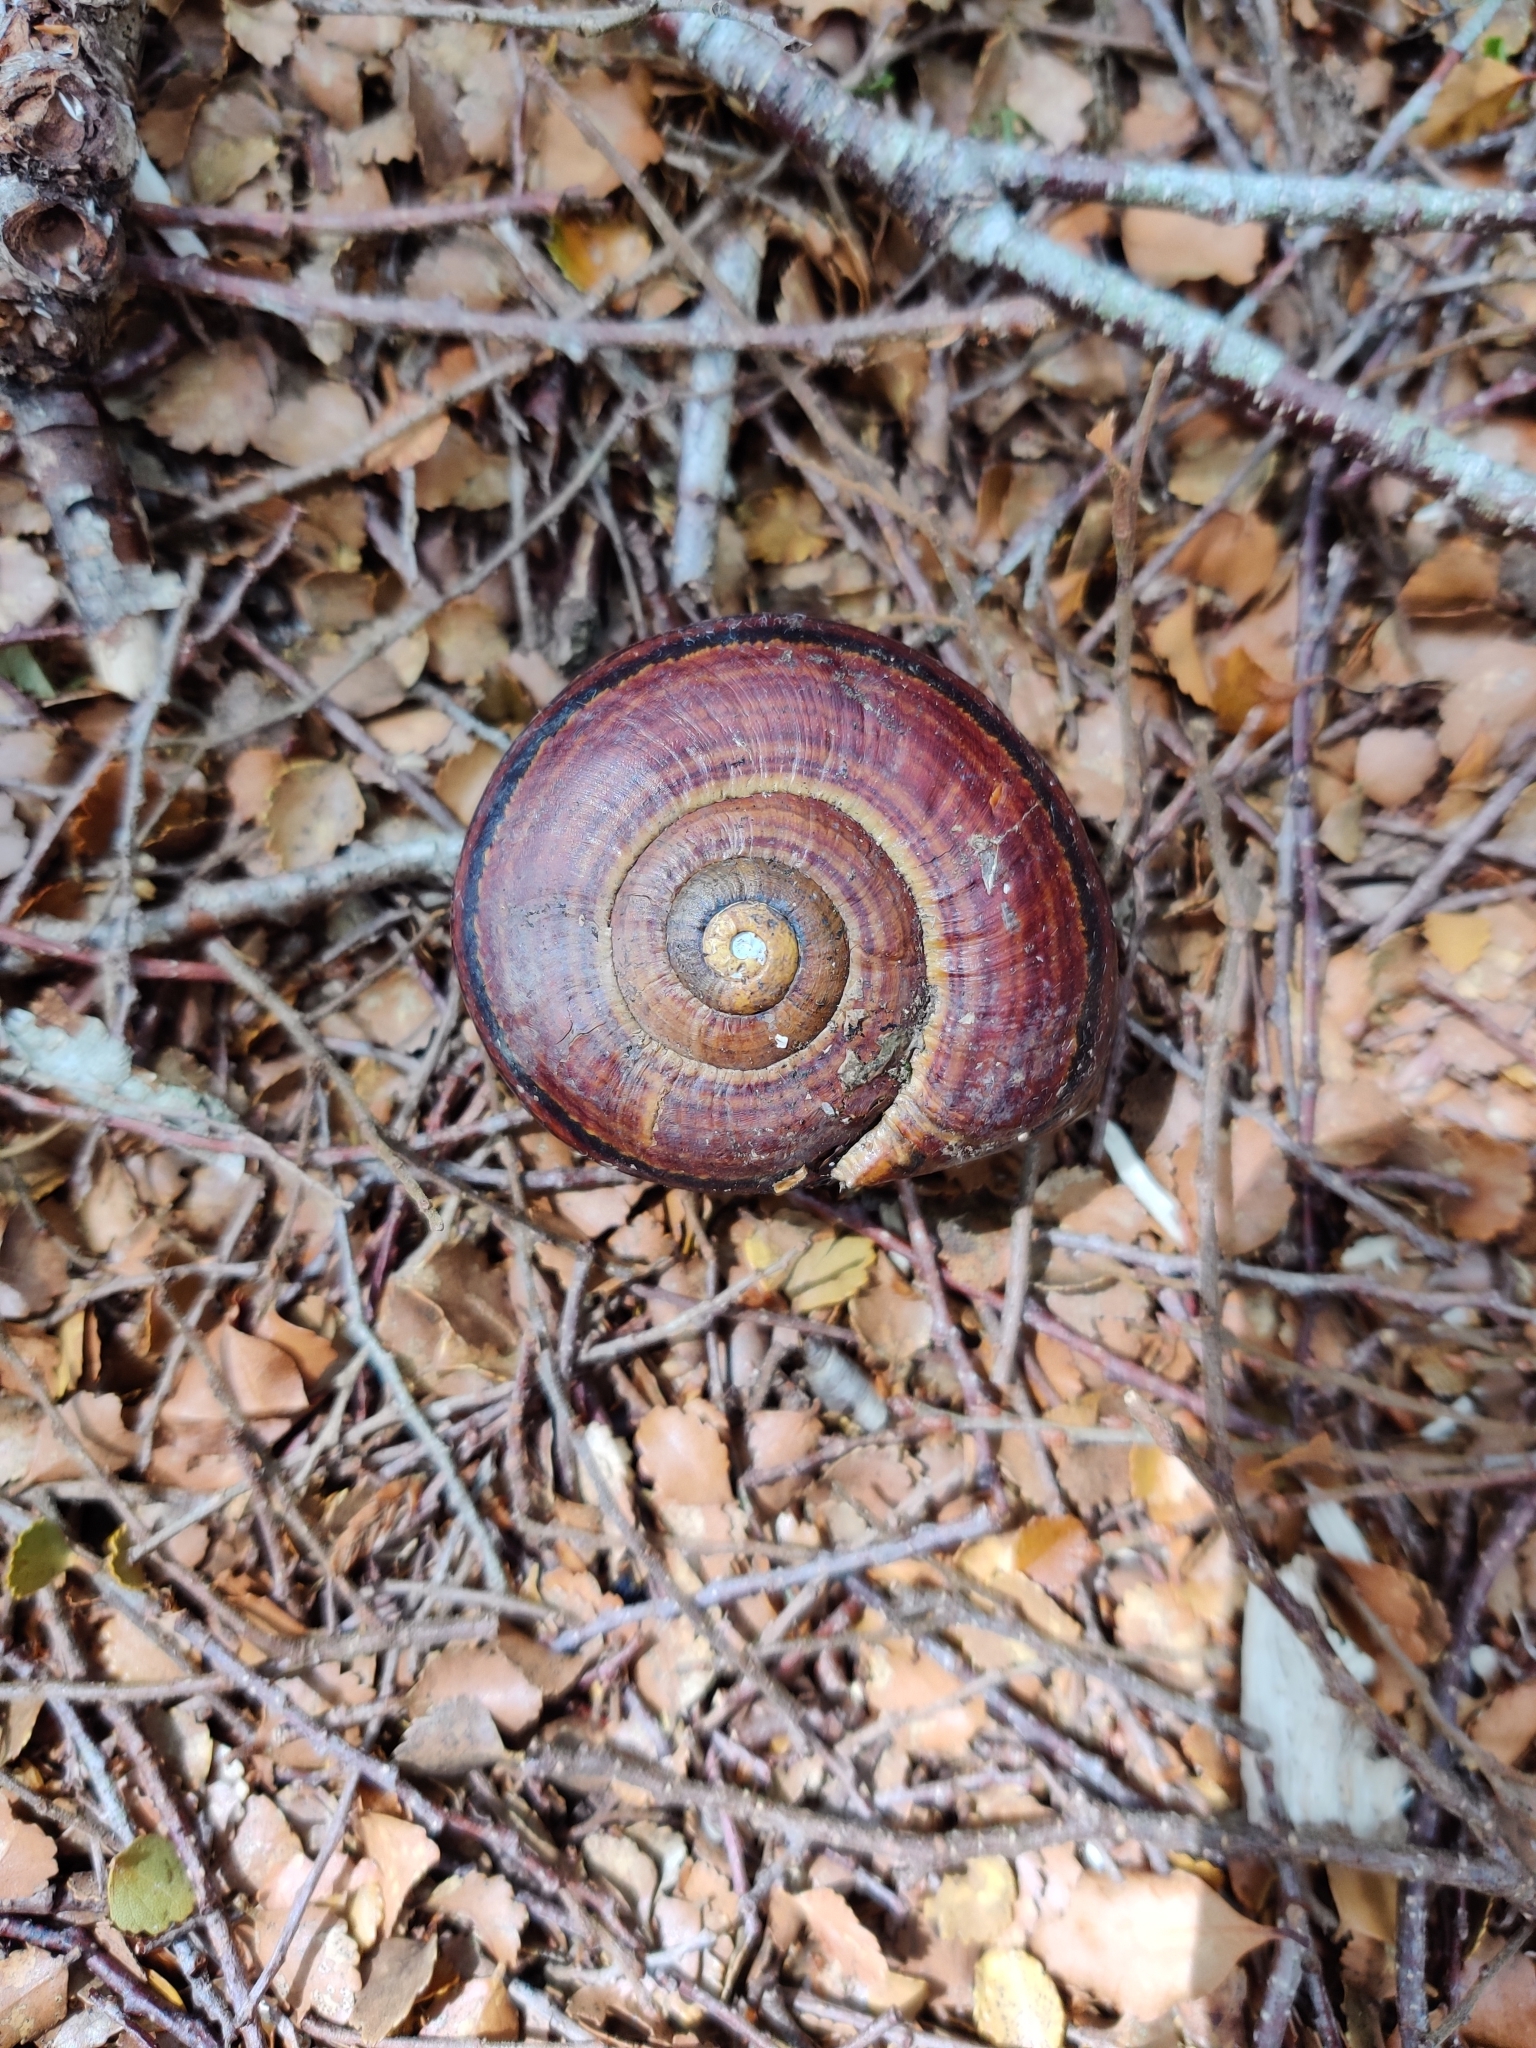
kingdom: Animalia
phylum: Mollusca
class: Gastropoda
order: Stylommatophora
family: Rhytididae
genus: Powelliphanta
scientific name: Powelliphanta hochstetteri
